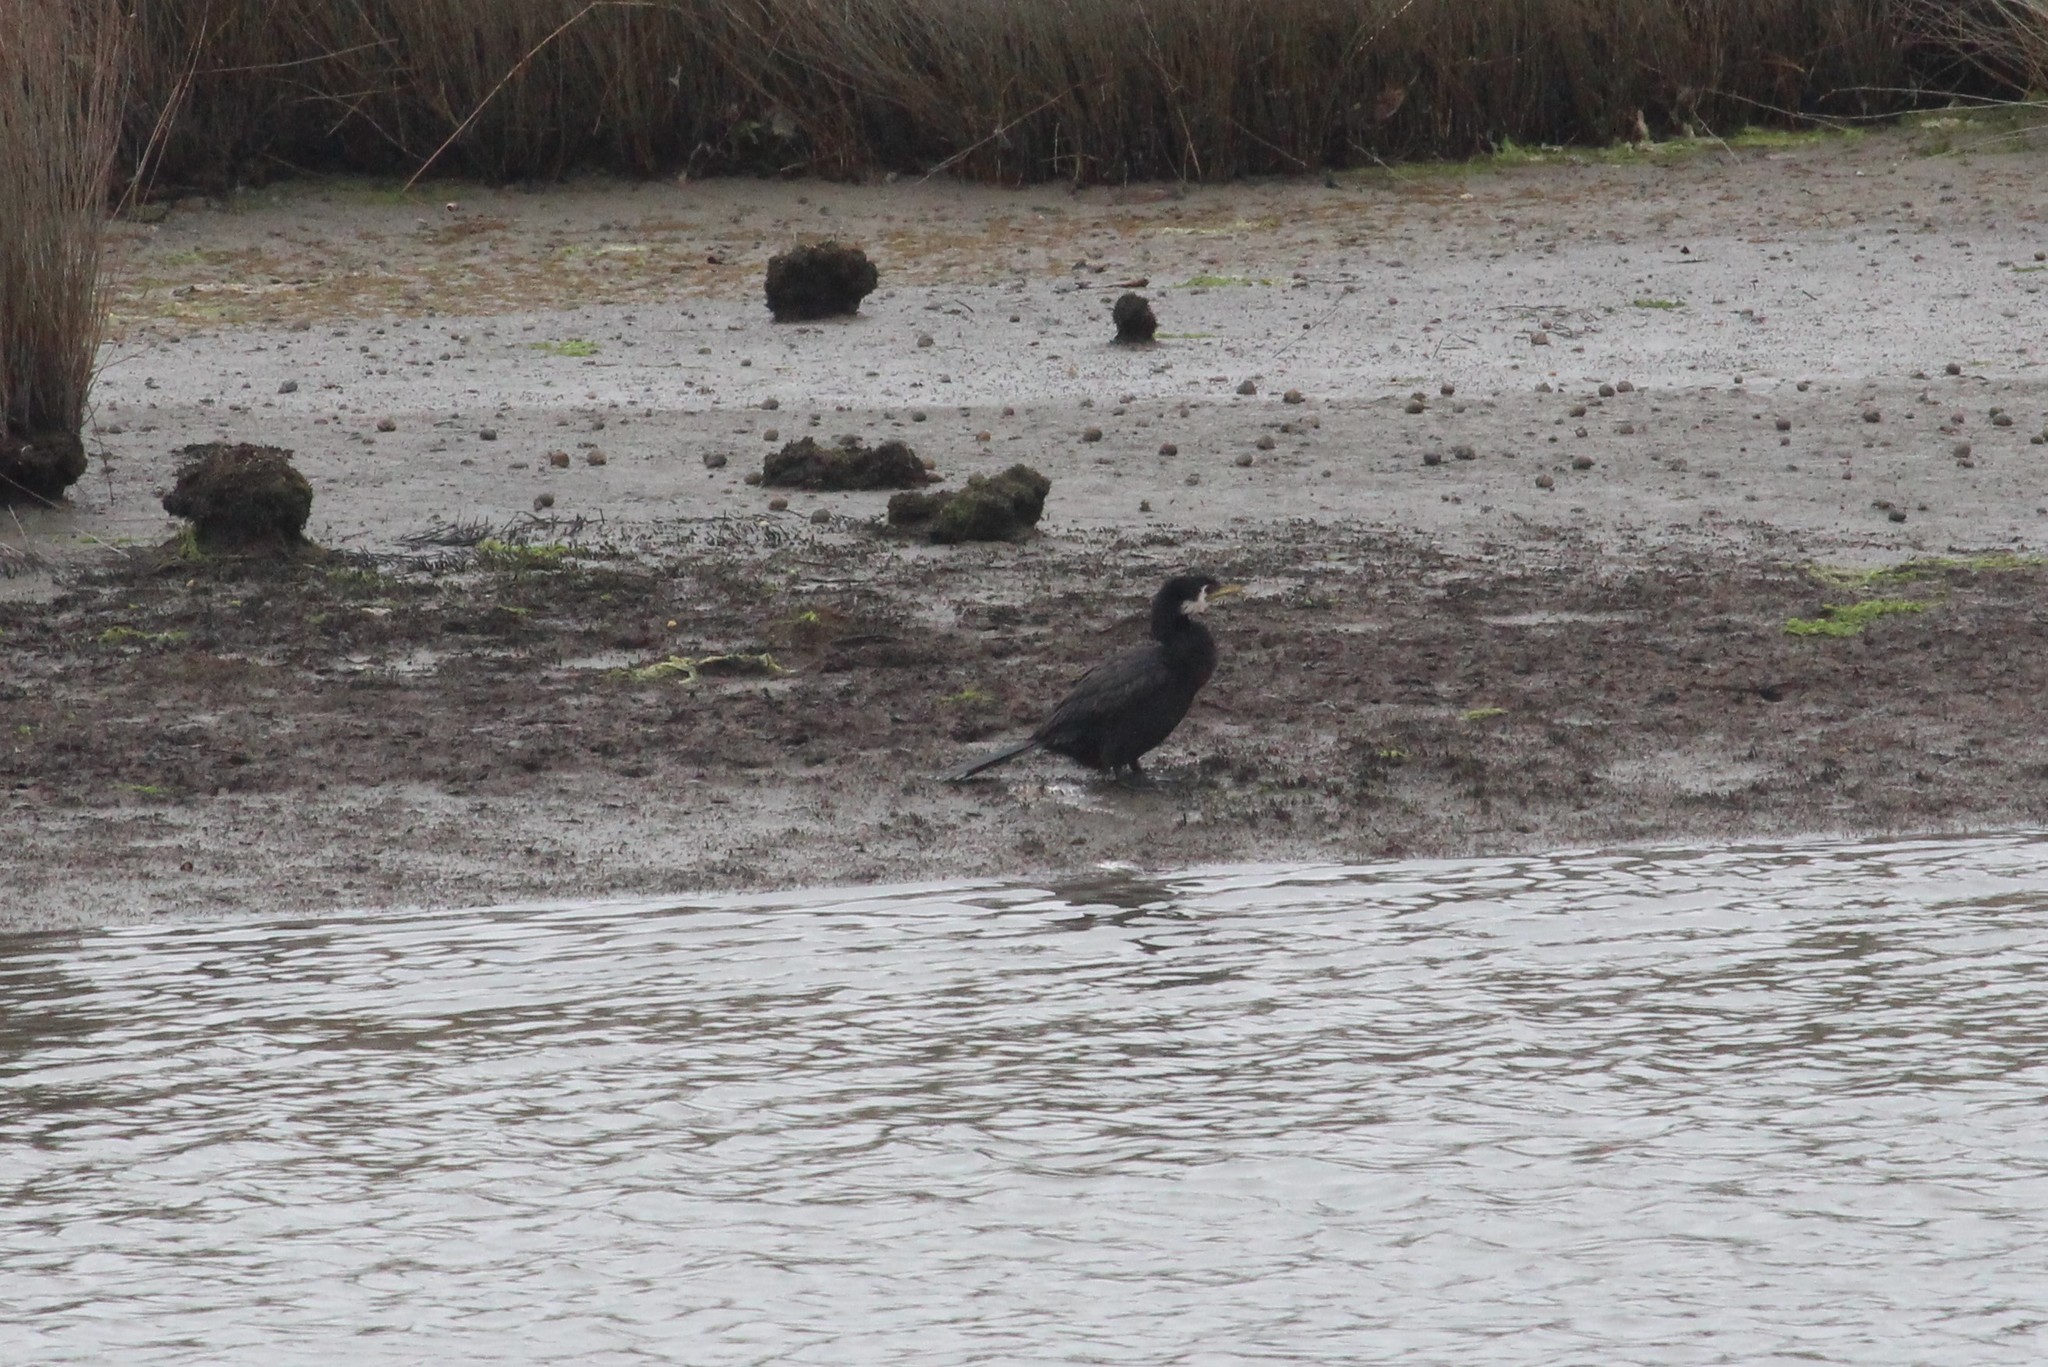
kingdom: Animalia
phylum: Chordata
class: Aves
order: Suliformes
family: Phalacrocoracidae
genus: Microcarbo
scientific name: Microcarbo melanoleucos
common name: Little pied cormorant
